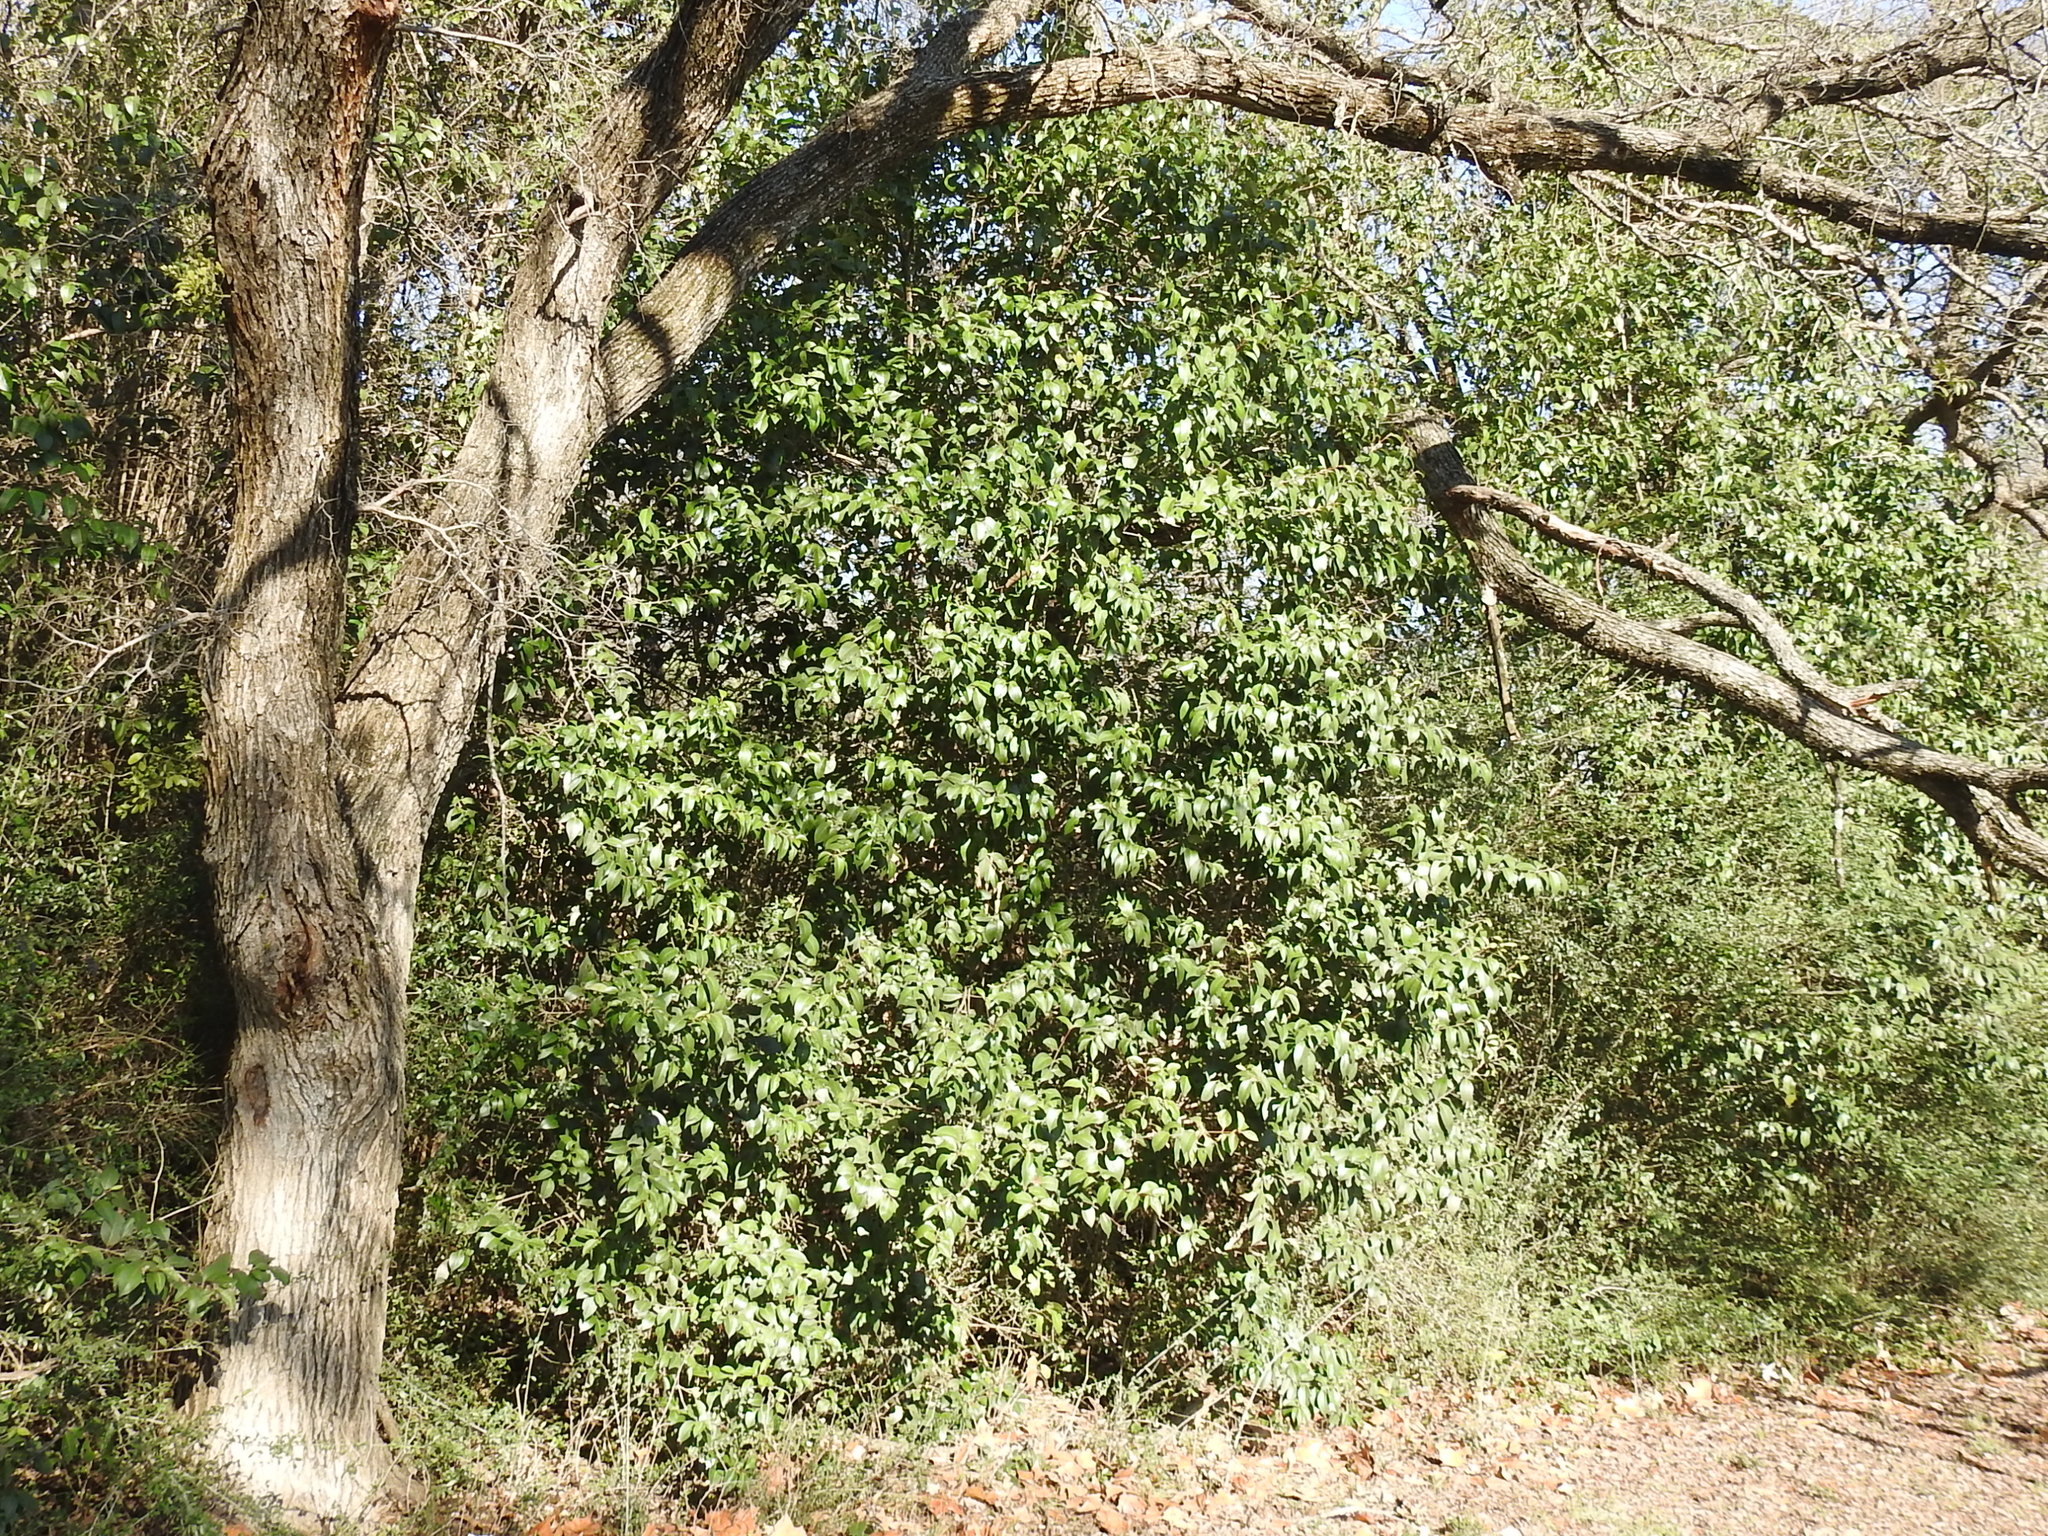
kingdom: Plantae
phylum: Tracheophyta
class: Magnoliopsida
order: Lamiales
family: Oleaceae
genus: Ligustrum
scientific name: Ligustrum lucidum
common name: Glossy privet
